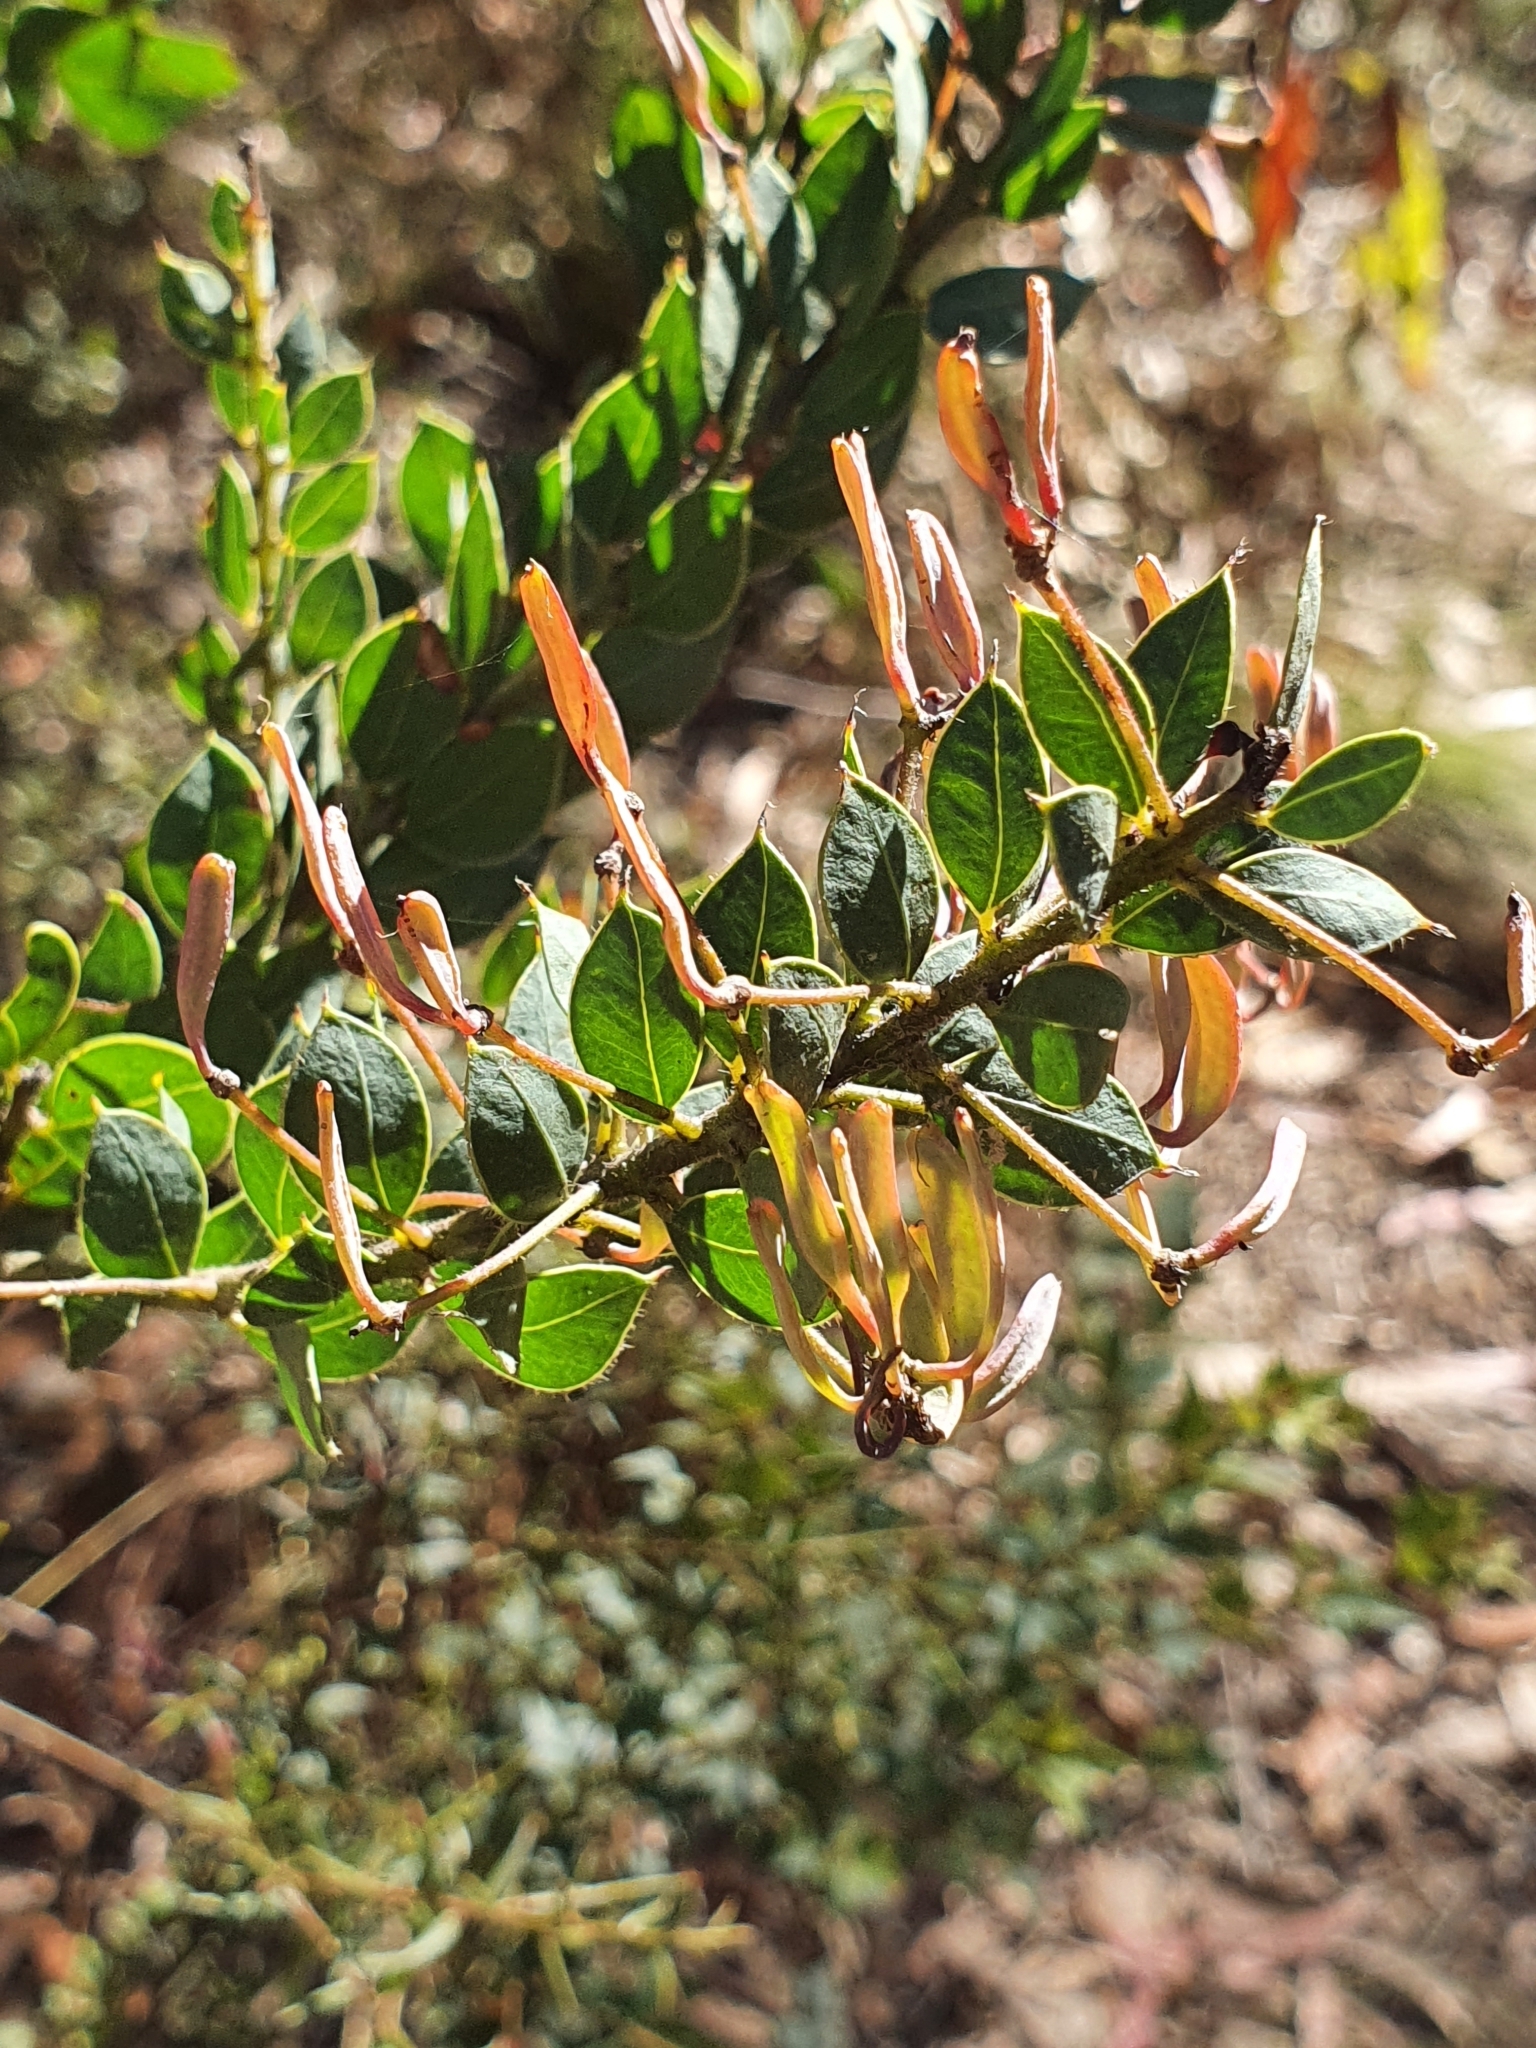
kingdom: Plantae
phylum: Tracheophyta
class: Magnoliopsida
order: Fabales
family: Fabaceae
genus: Acacia
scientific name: Acacia undulifolia
